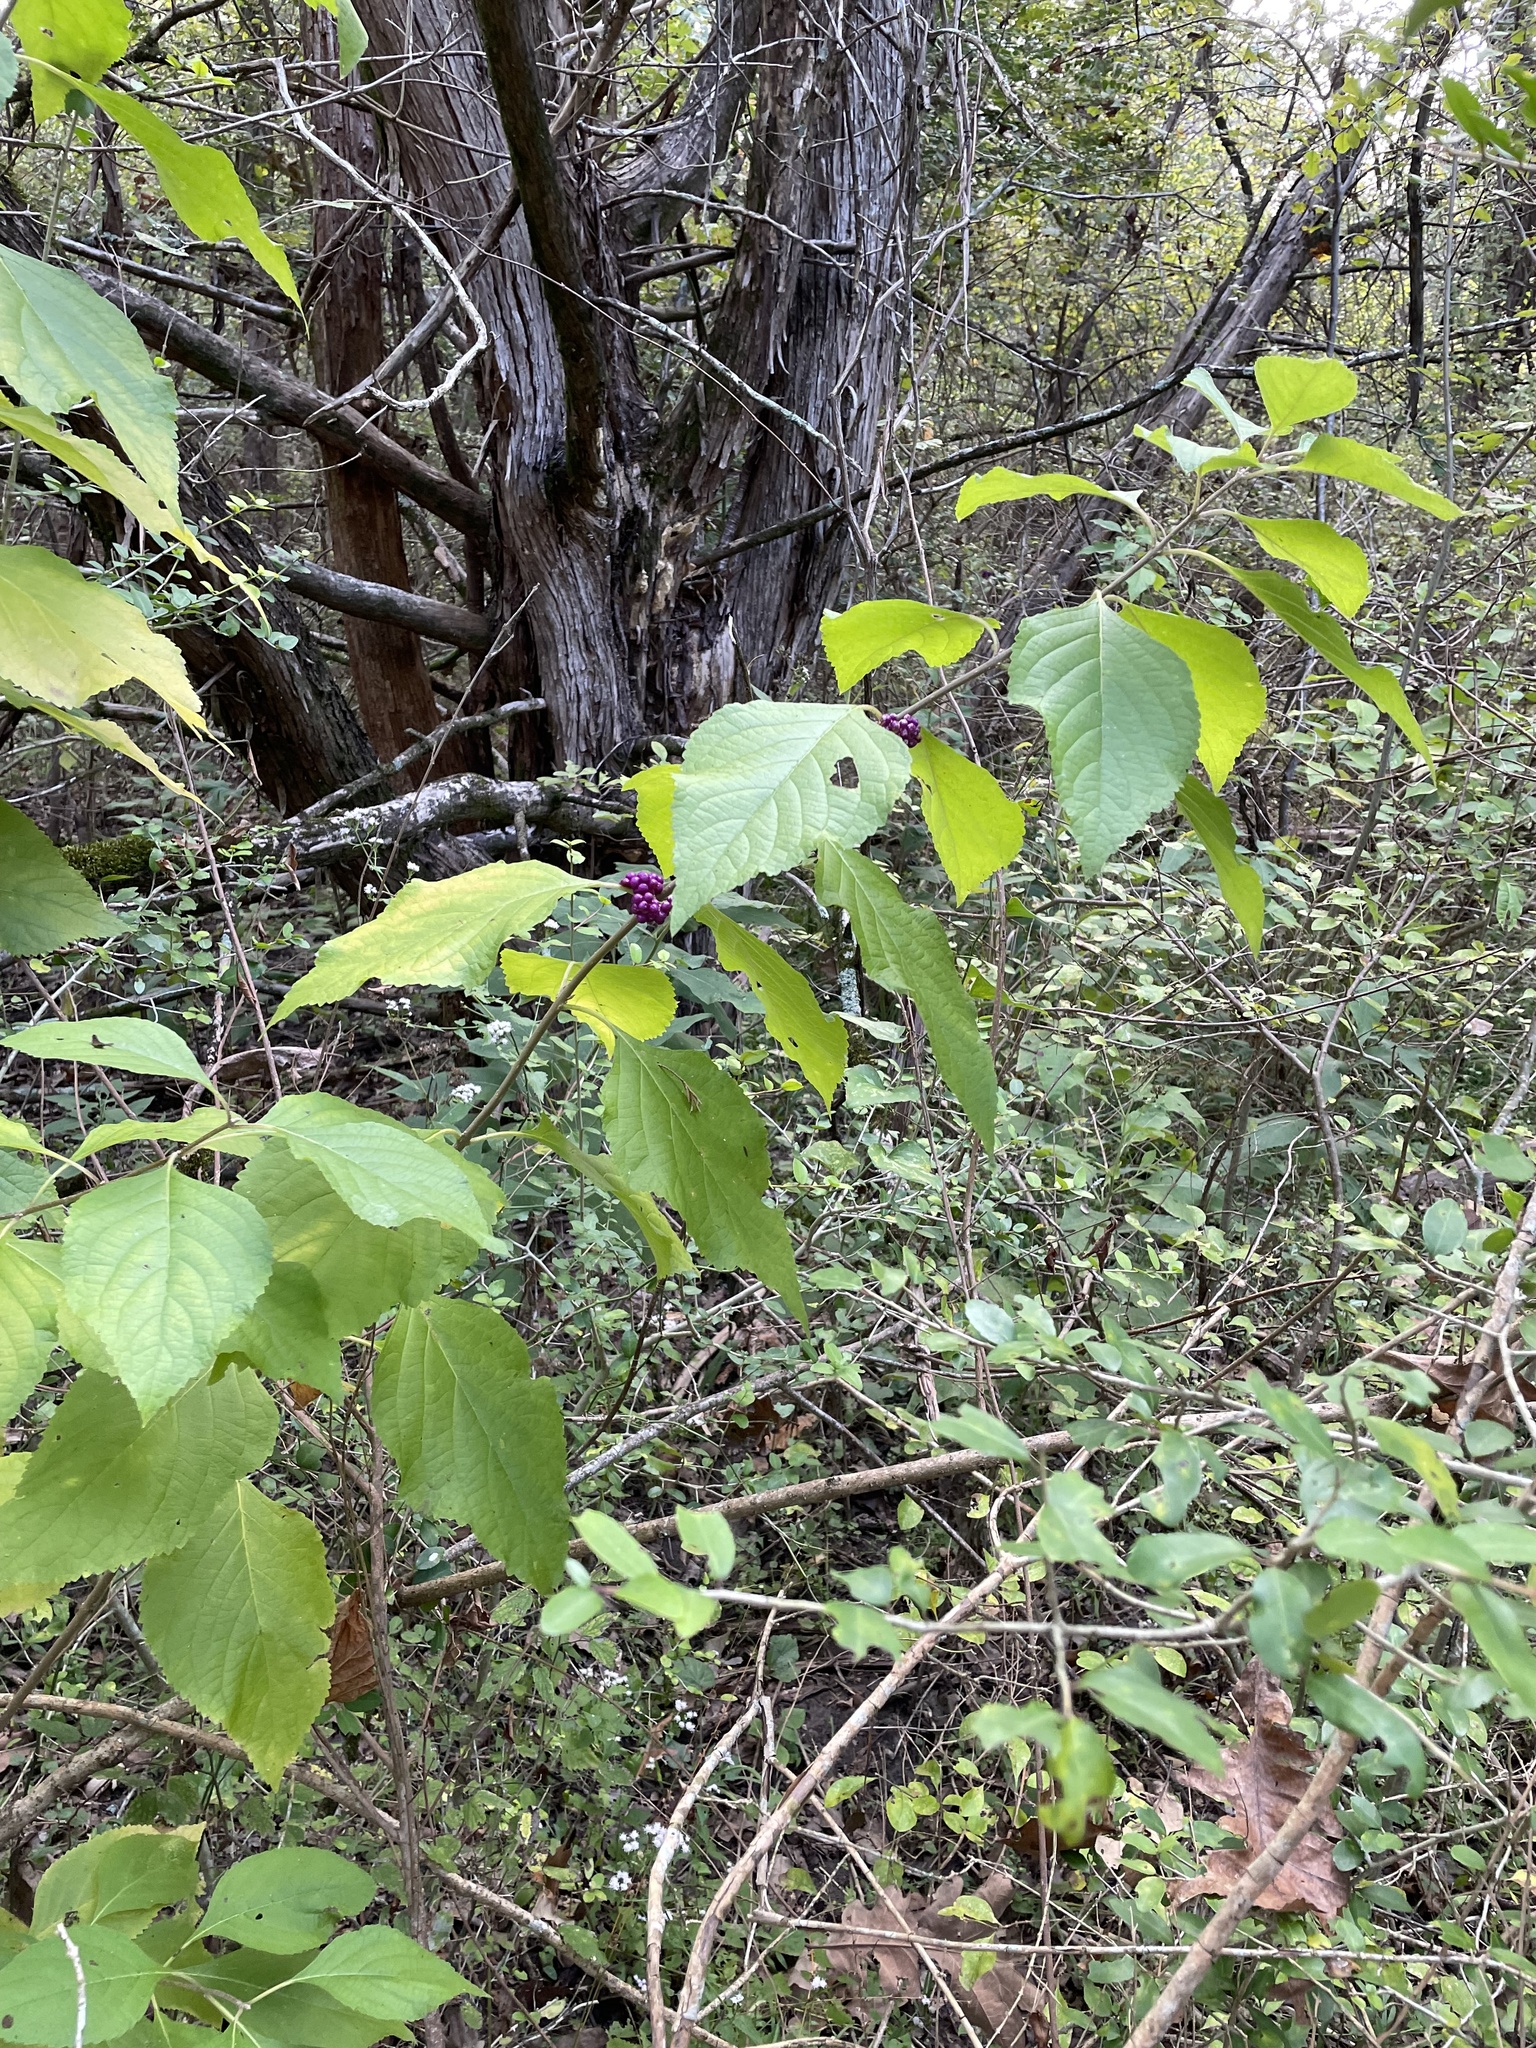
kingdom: Plantae
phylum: Tracheophyta
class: Magnoliopsida
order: Lamiales
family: Lamiaceae
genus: Callicarpa
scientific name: Callicarpa americana
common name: American beautyberry
